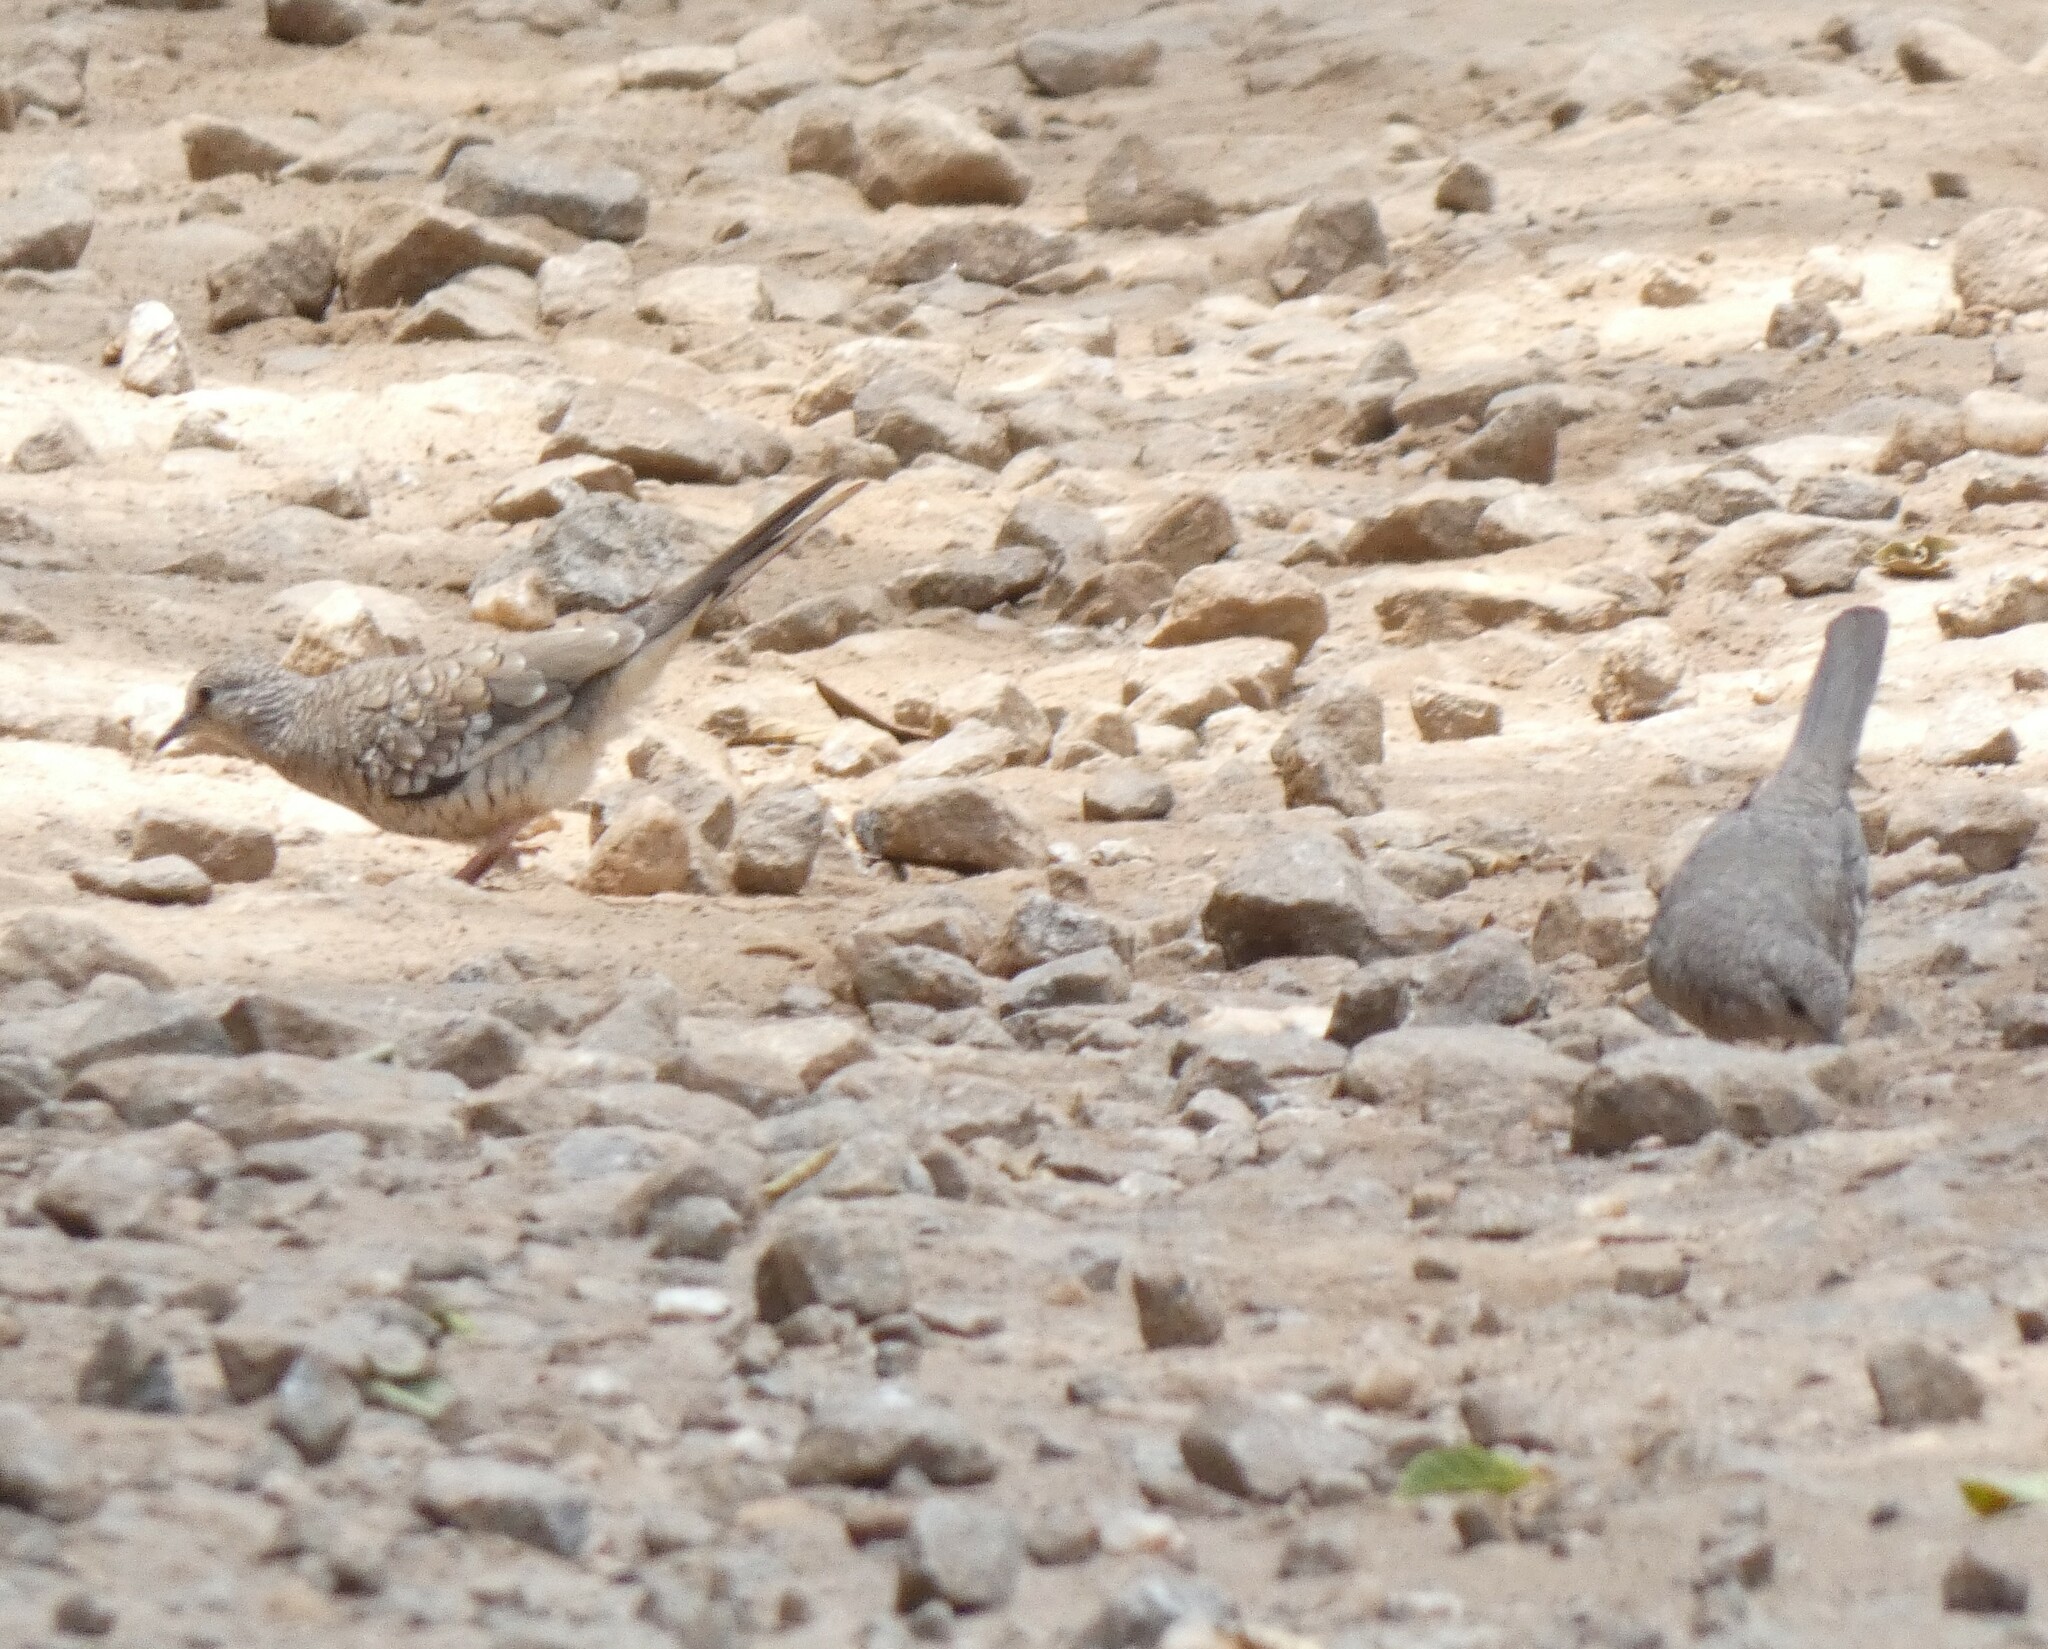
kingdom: Animalia
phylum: Chordata
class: Aves
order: Columbiformes
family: Columbidae
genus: Columbina
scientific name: Columbina squammata
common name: Scaled dove
